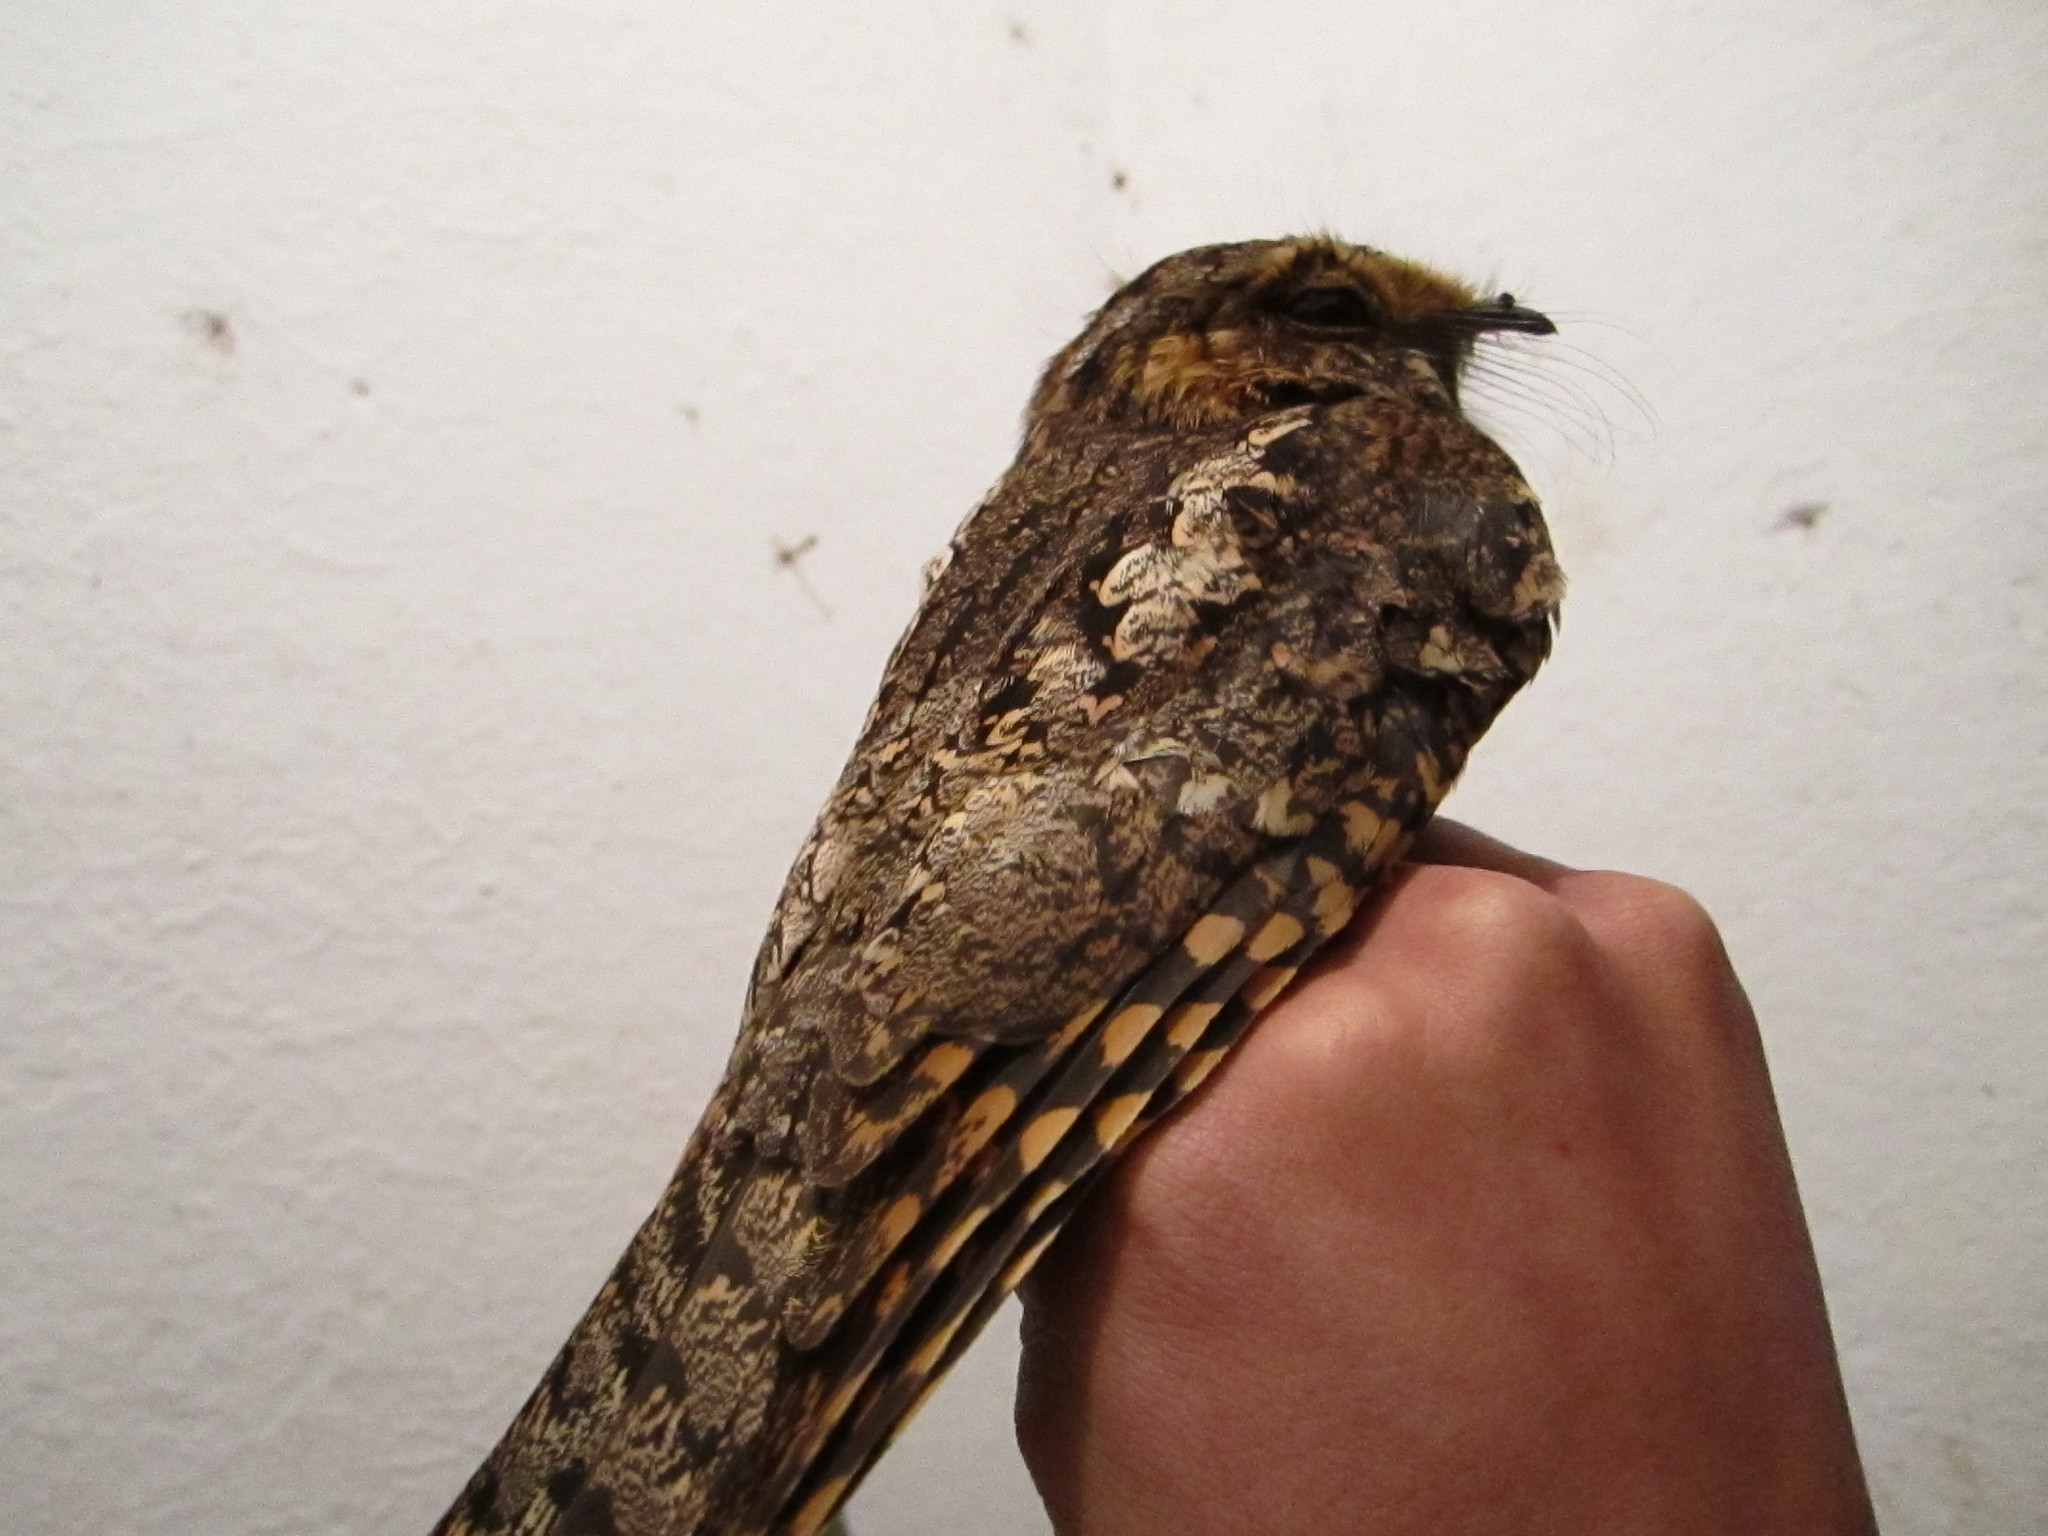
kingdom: Animalia
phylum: Chordata
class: Aves
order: Caprimulgiformes
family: Caprimulgidae
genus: Antrostomus
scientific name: Antrostomus arizonae
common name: Mexican whip-poor-will
